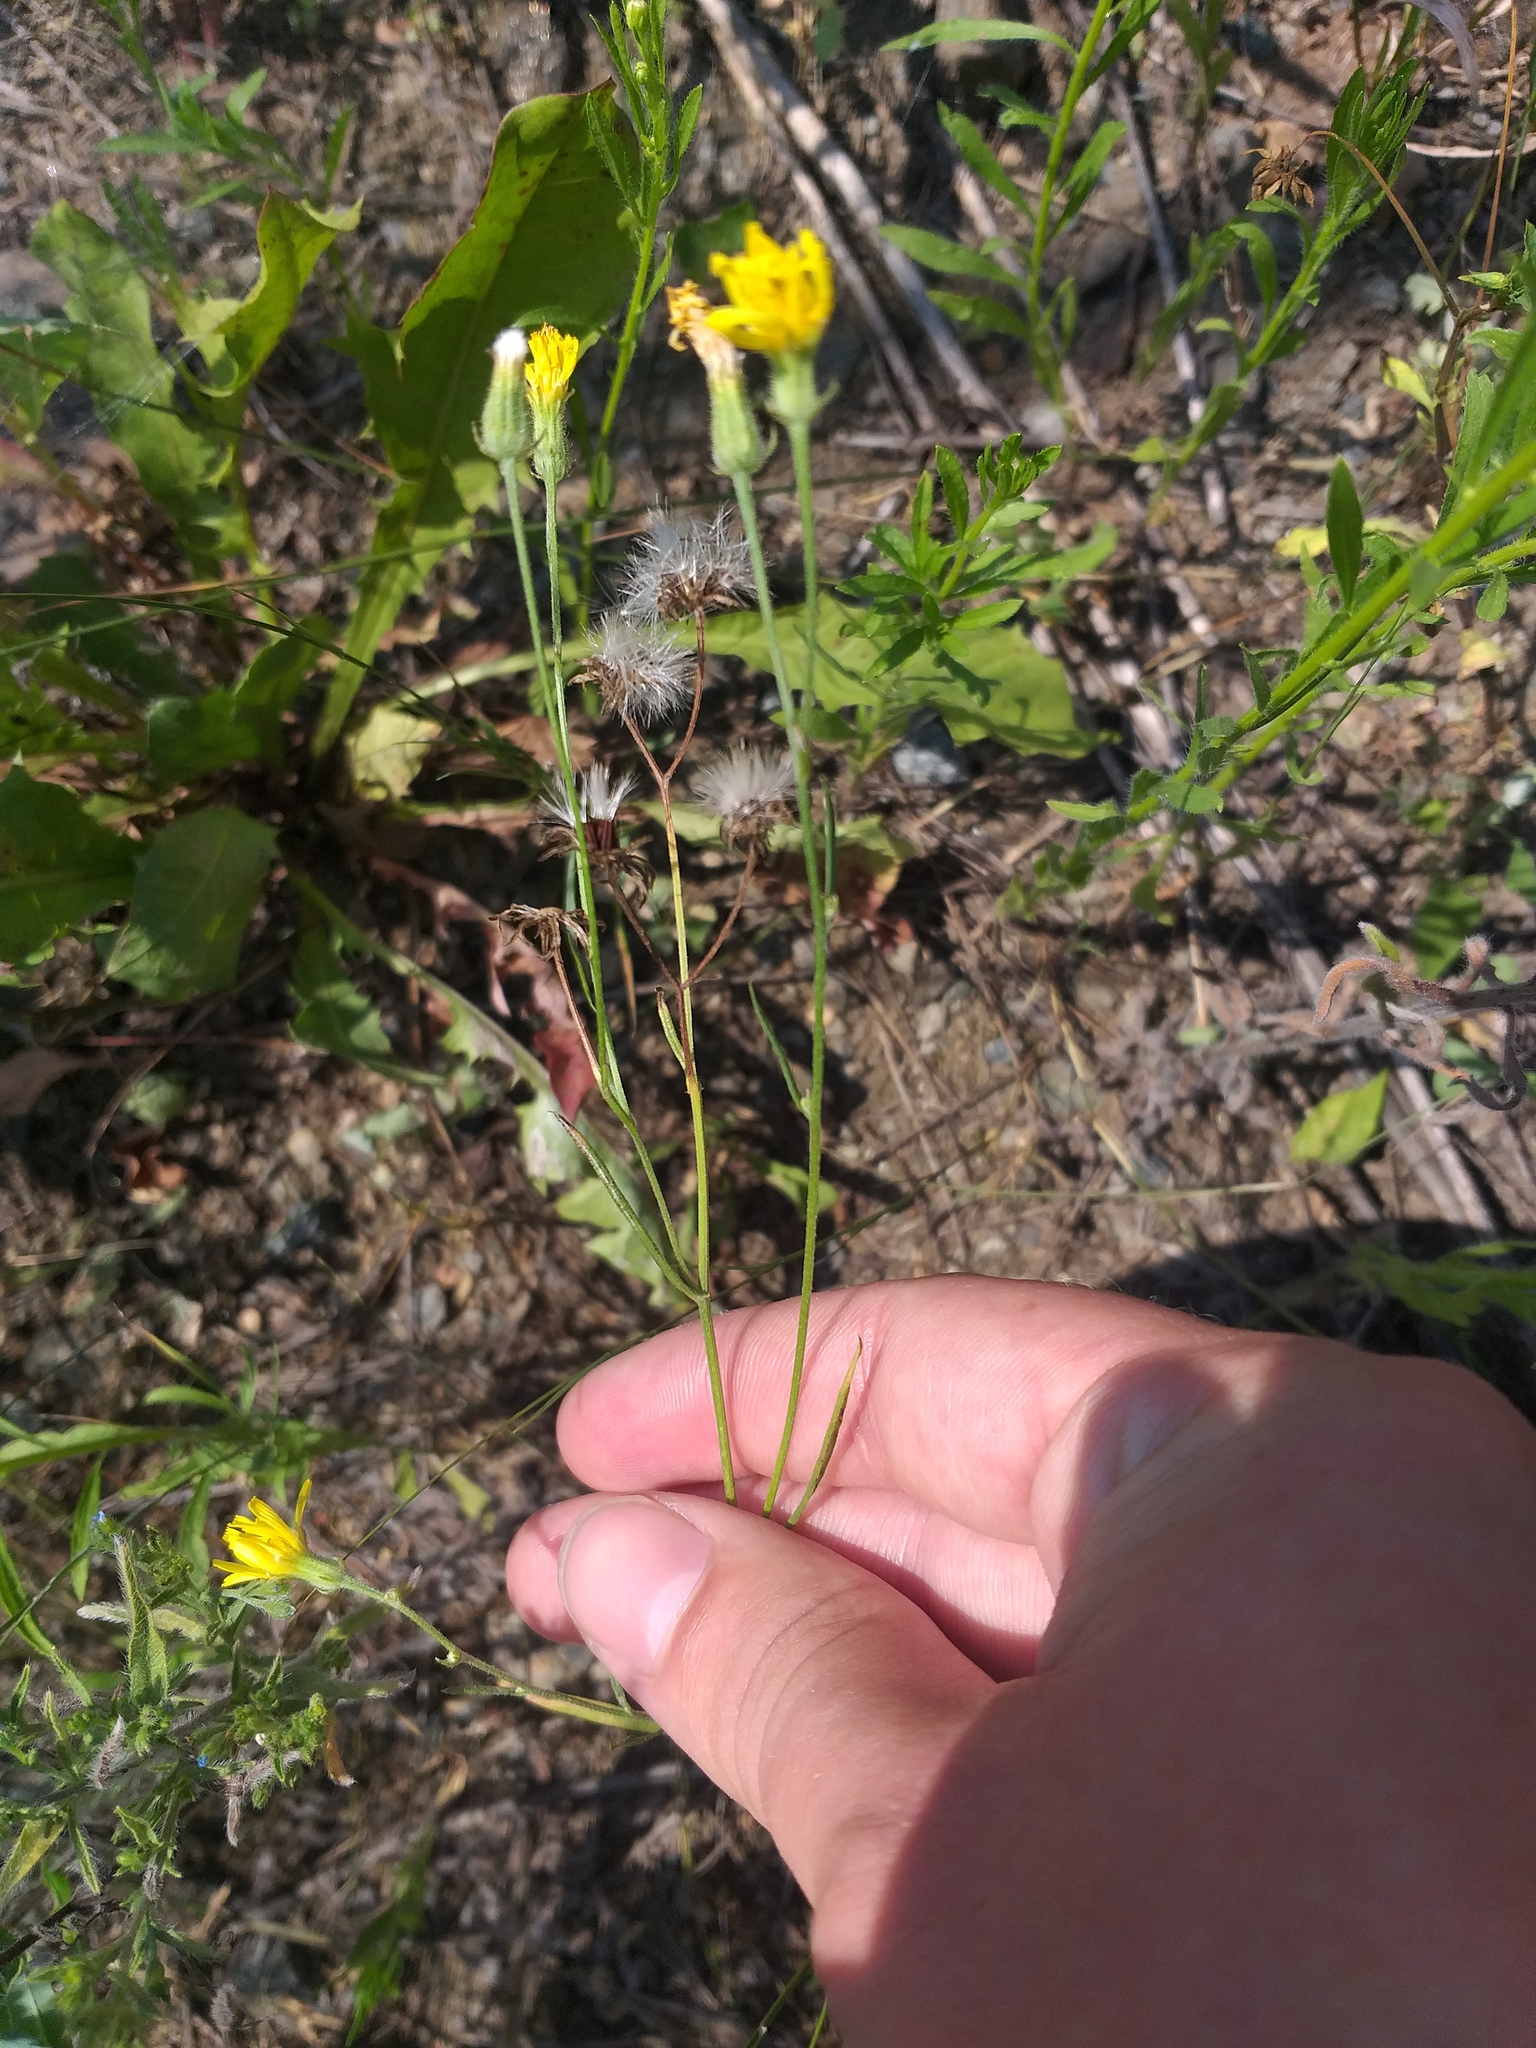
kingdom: Plantae
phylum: Tracheophyta
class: Magnoliopsida
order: Asterales
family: Asteraceae
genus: Crepis
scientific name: Crepis tectorum
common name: Narrow-leaved hawk's-beard
